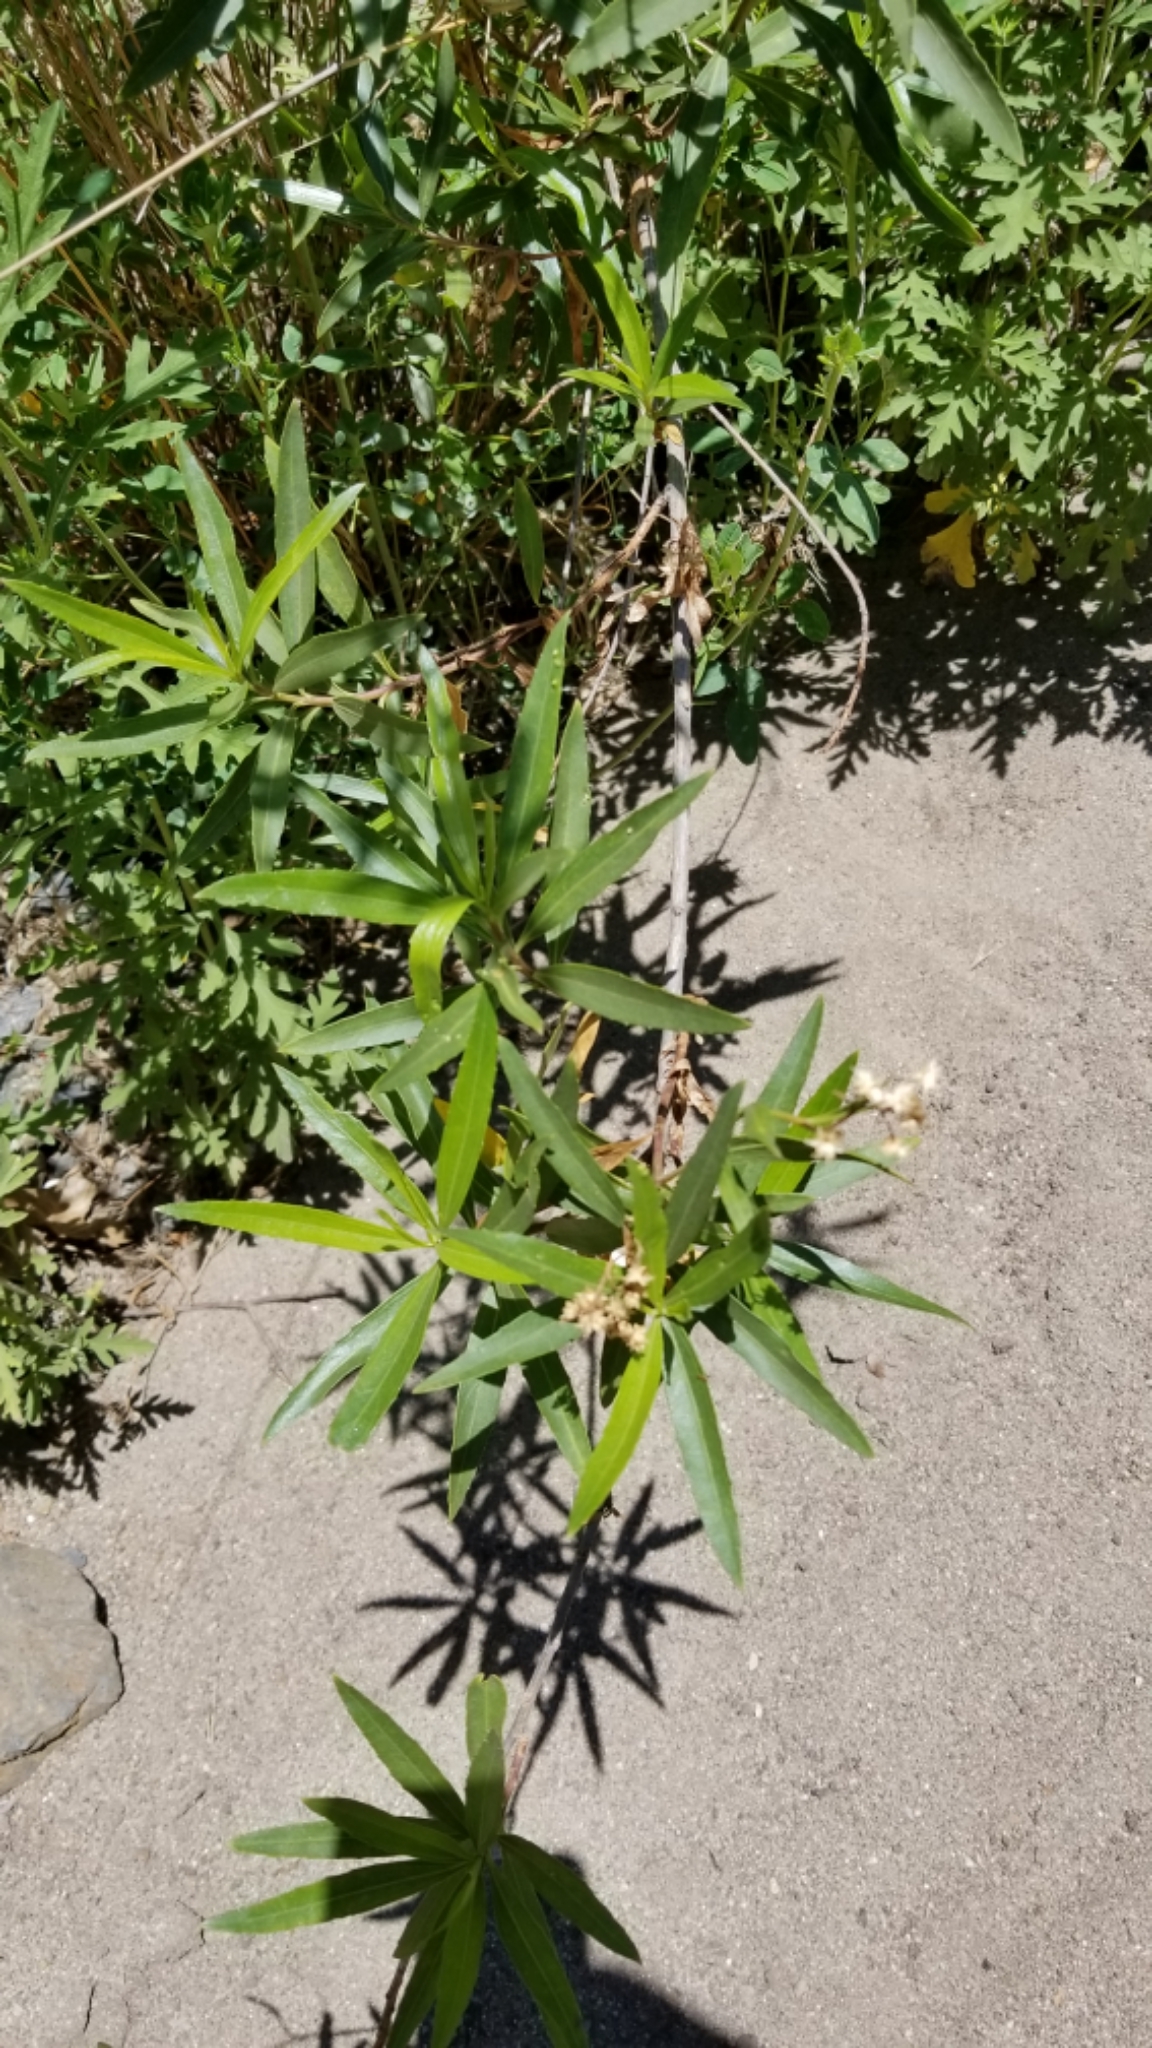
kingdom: Plantae
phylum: Tracheophyta
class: Magnoliopsida
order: Asterales
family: Asteraceae
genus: Baccharis
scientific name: Baccharis salicifolia
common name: Sticky baccharis
